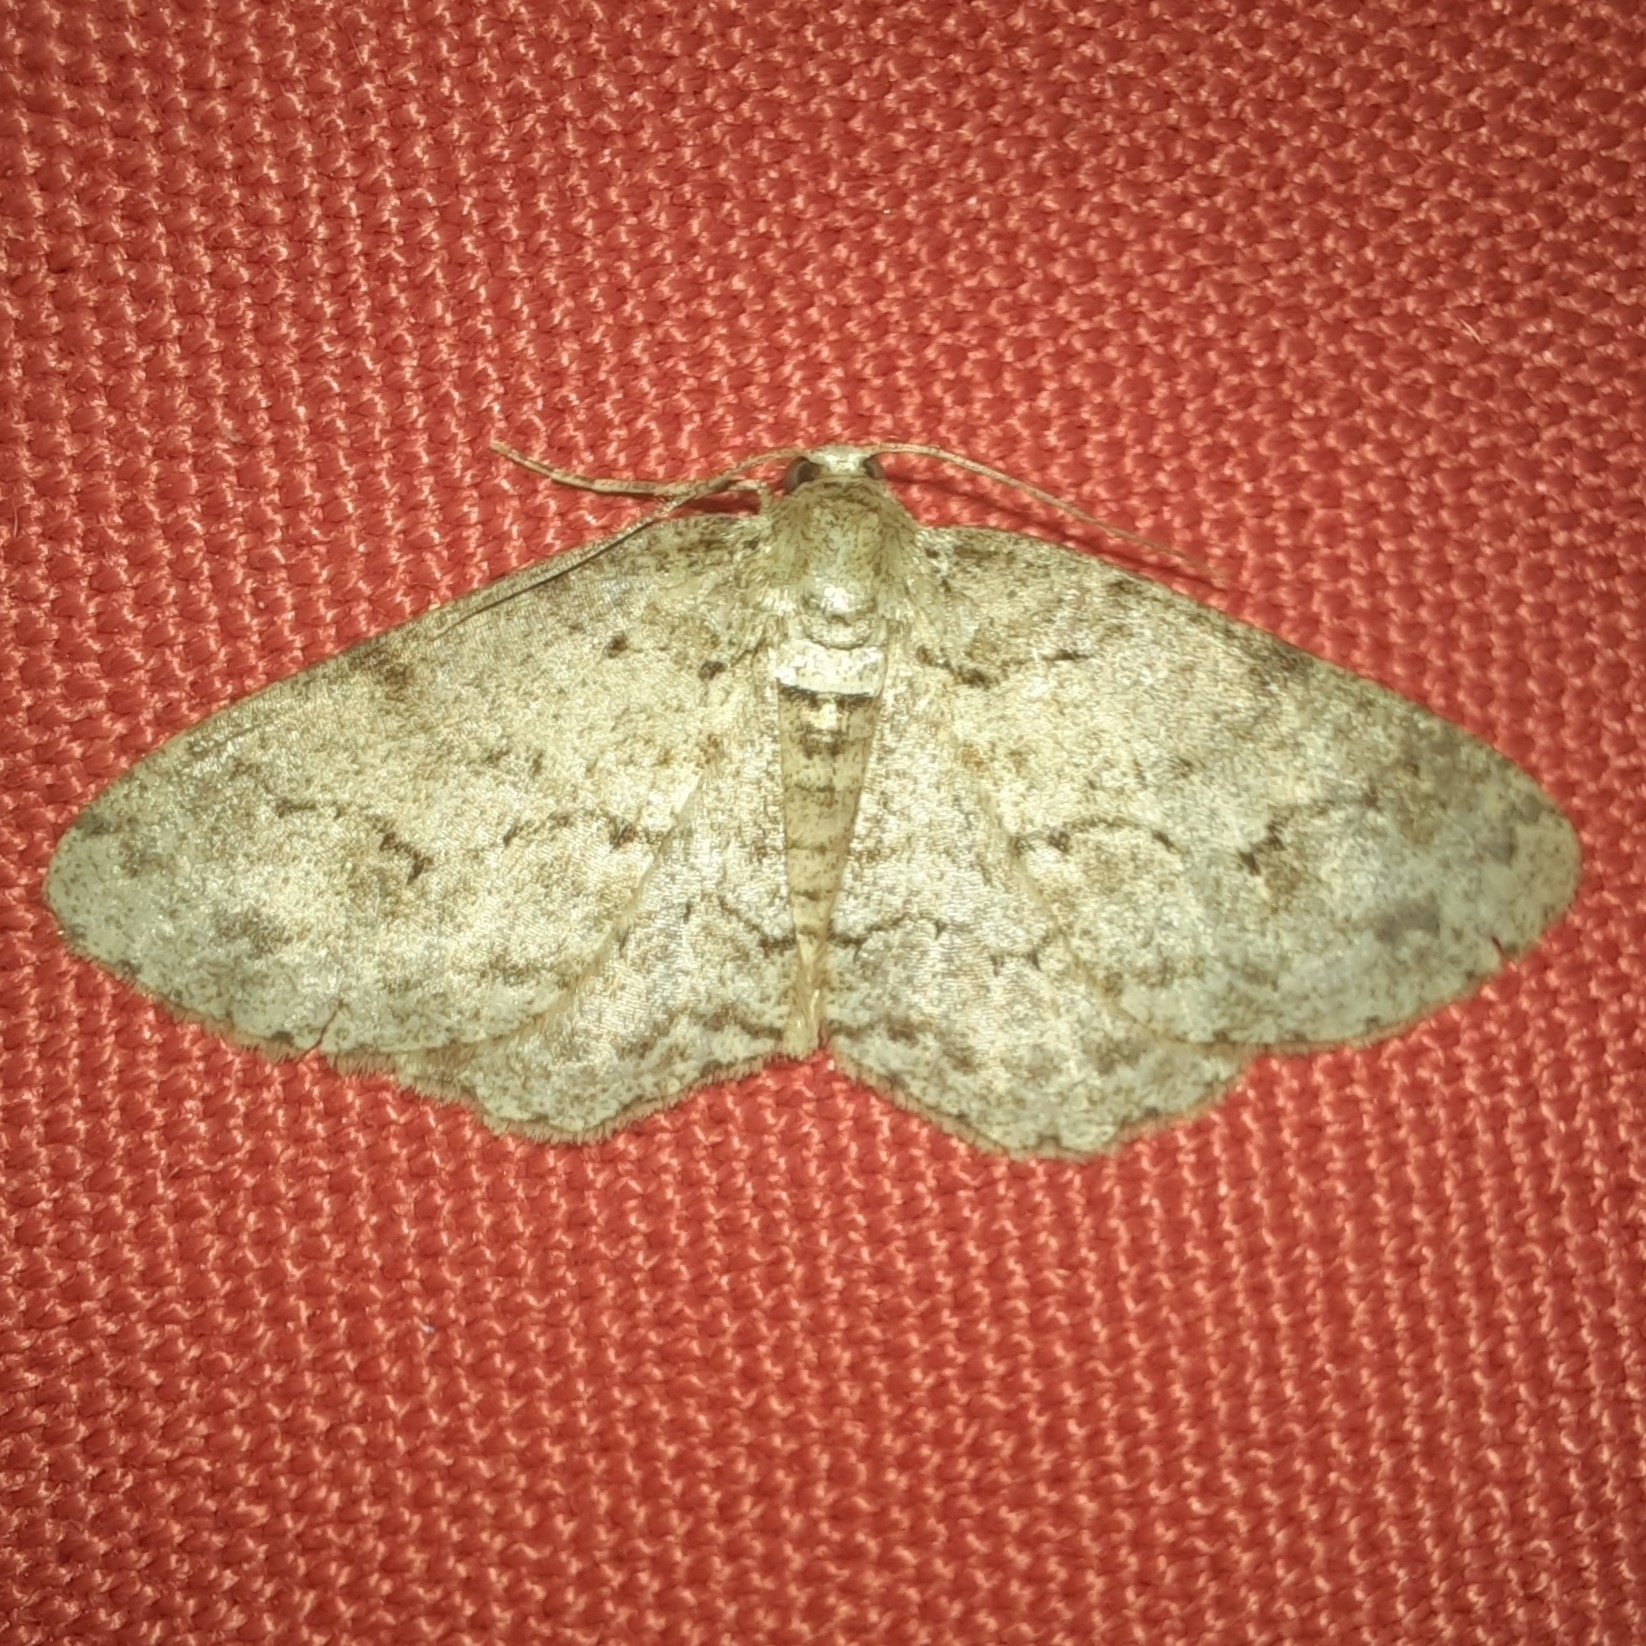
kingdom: Animalia
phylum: Arthropoda
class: Insecta
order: Lepidoptera
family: Geometridae
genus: Ectropis
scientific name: Ectropis crepuscularia
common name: Engrailed
